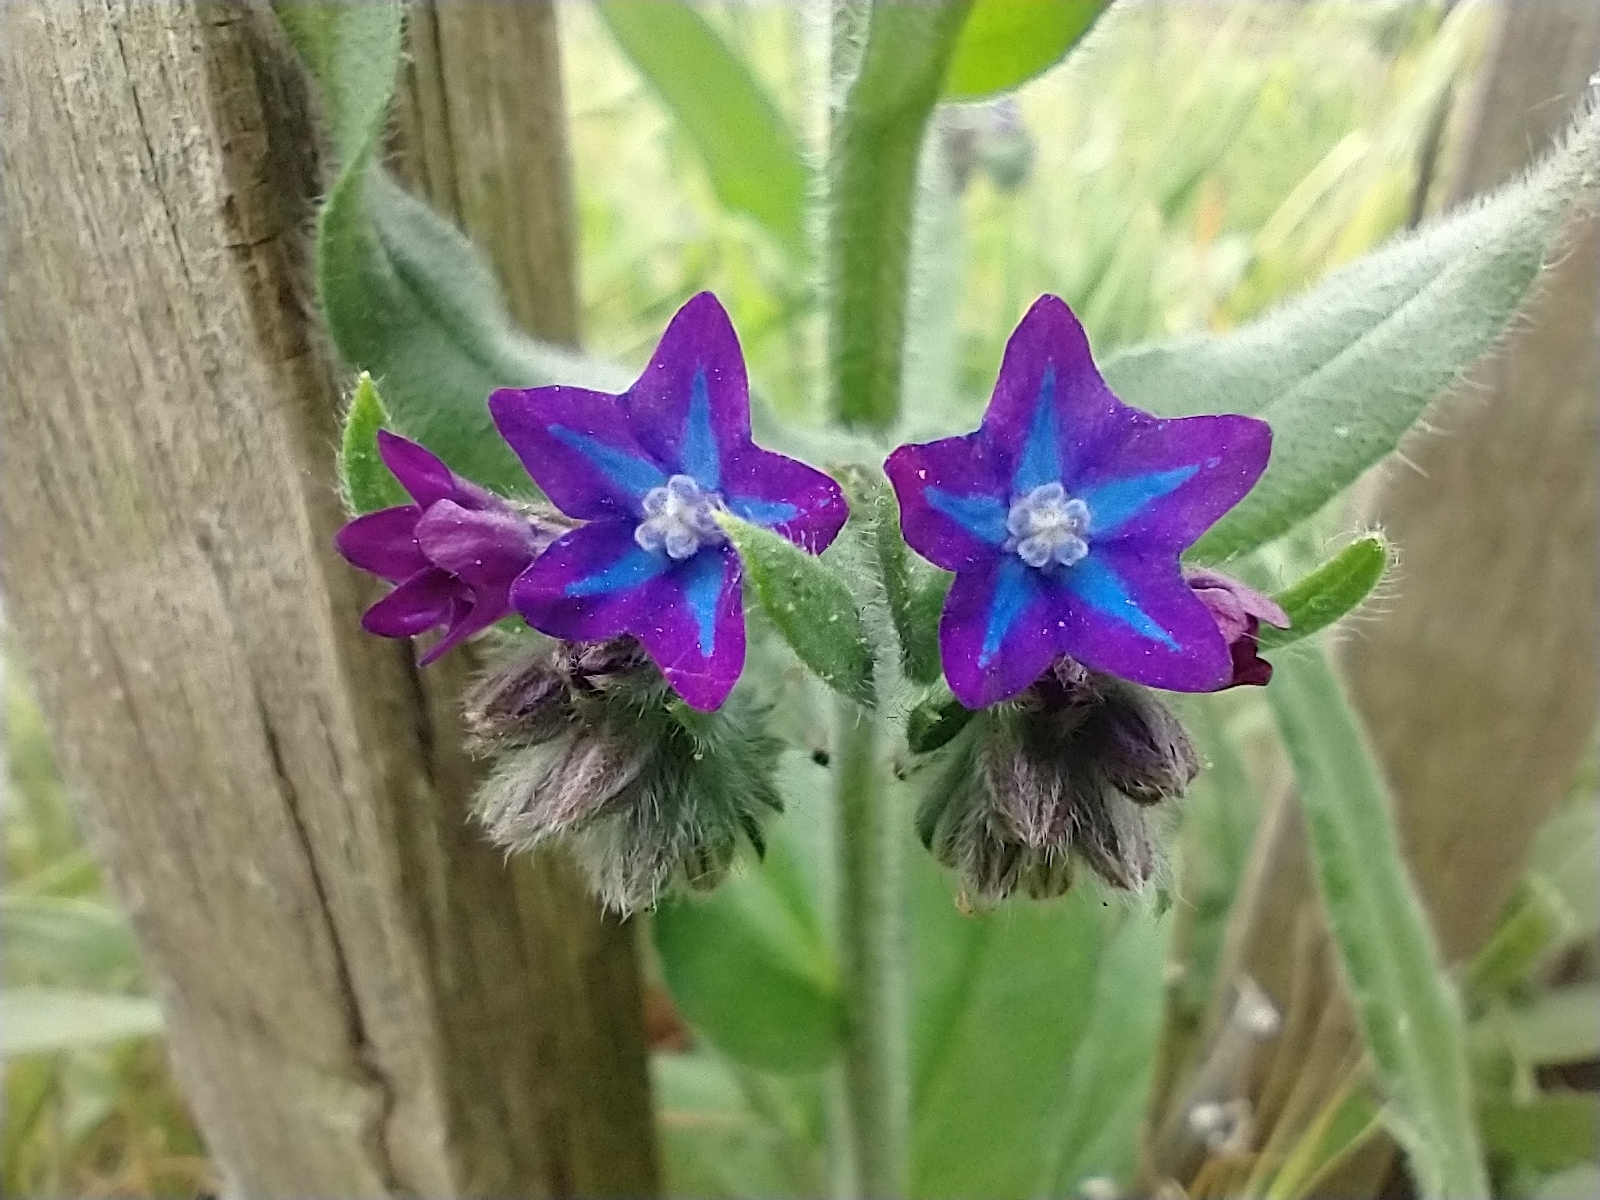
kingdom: Plantae
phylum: Tracheophyta
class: Magnoliopsida
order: Boraginales
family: Boraginaceae
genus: Anchusa
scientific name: Anchusa officinalis
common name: Alkanet
